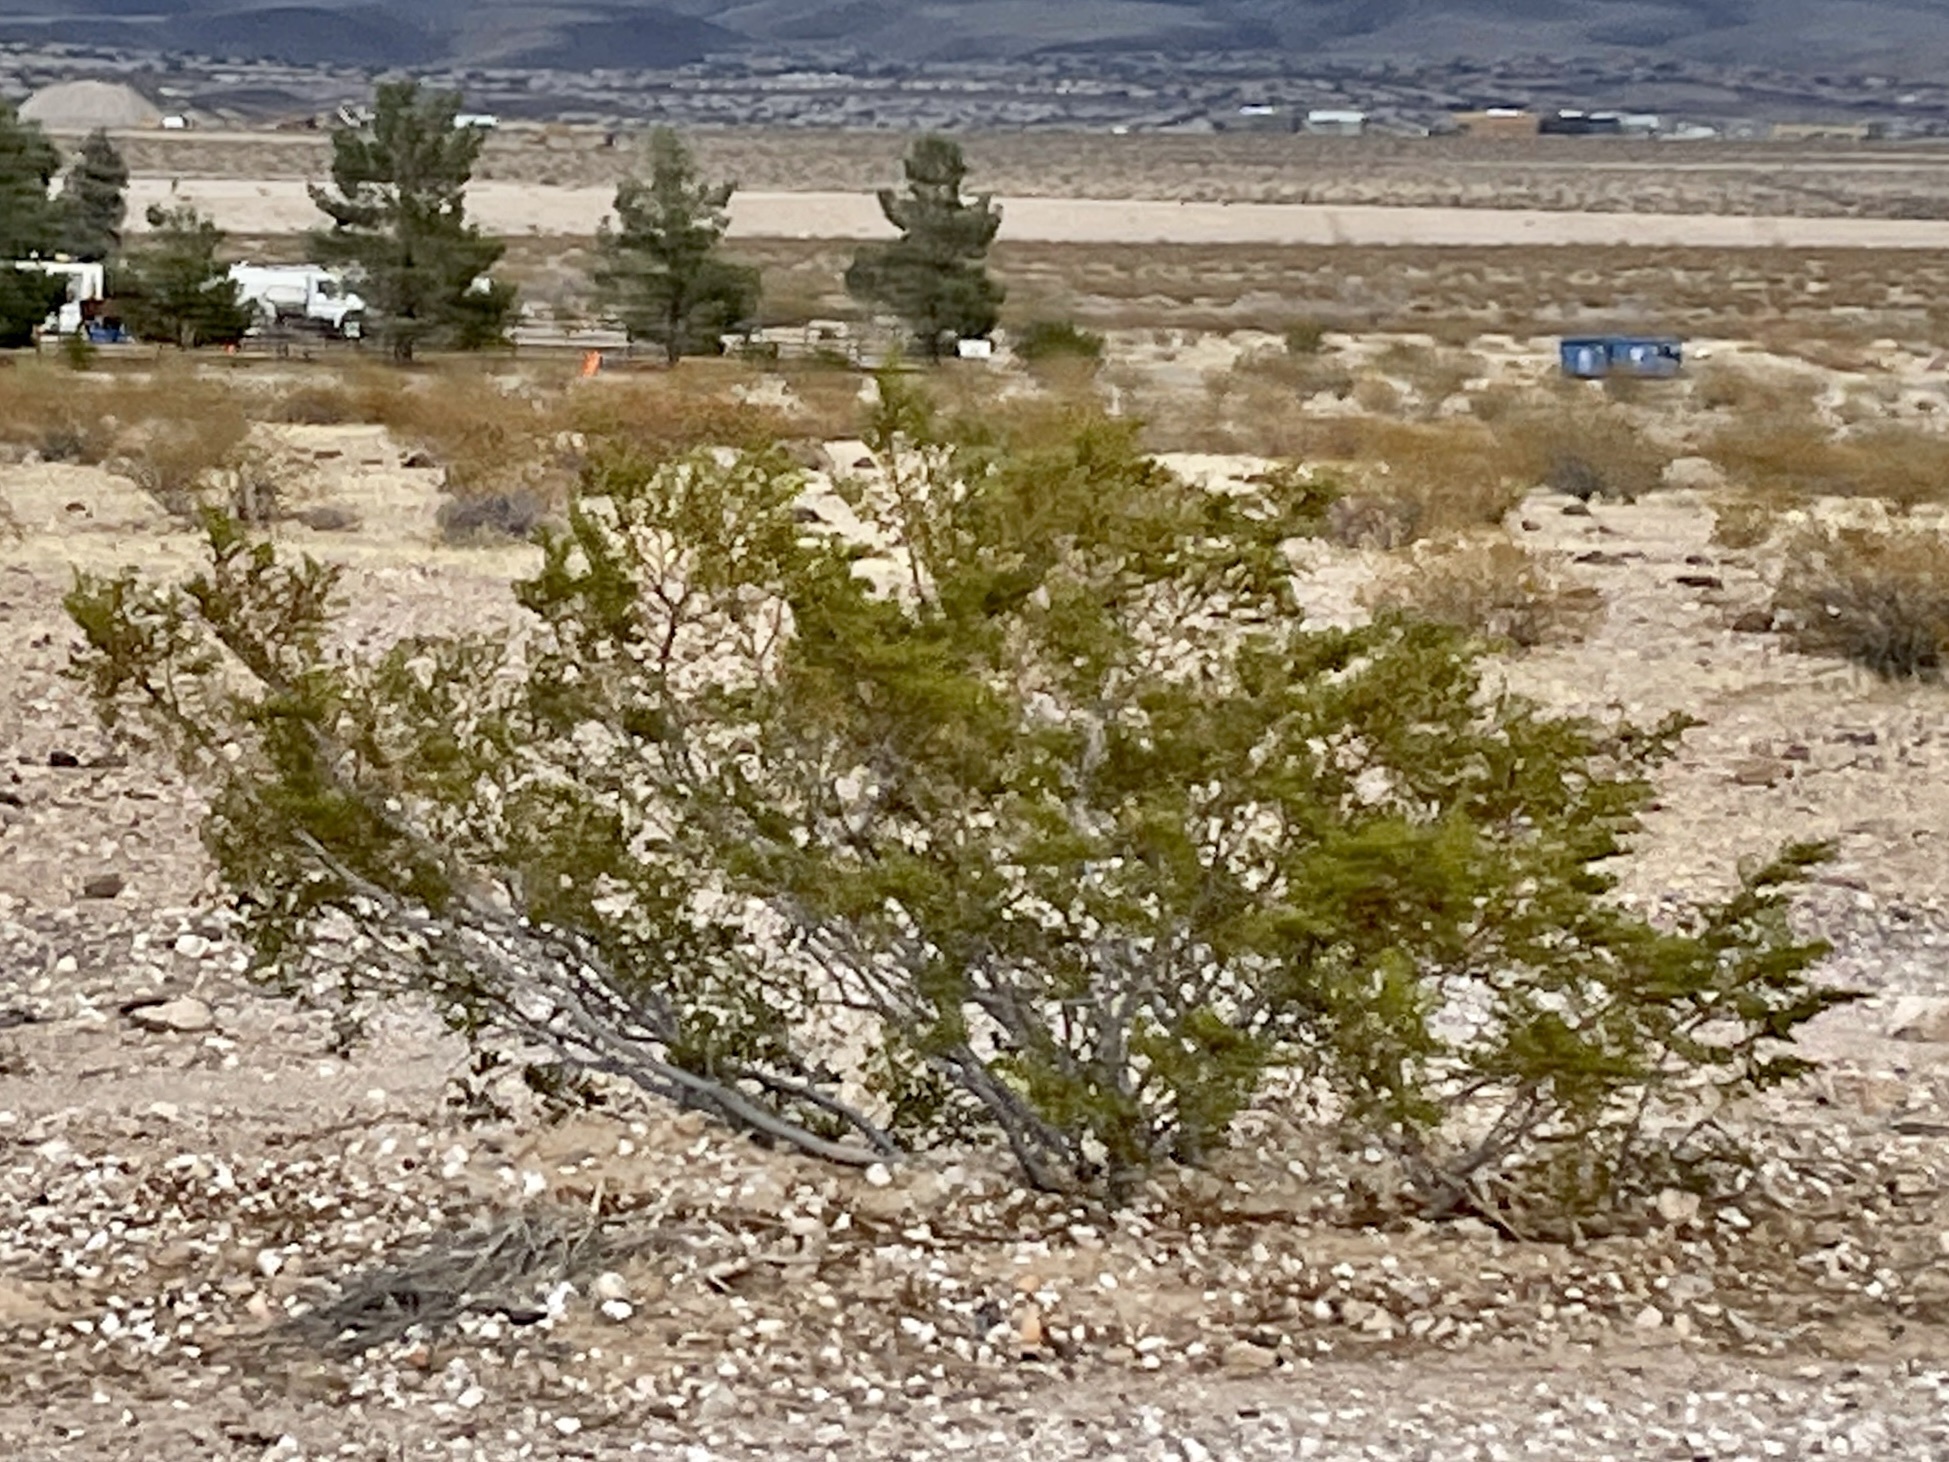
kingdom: Plantae
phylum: Tracheophyta
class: Magnoliopsida
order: Zygophyllales
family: Zygophyllaceae
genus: Larrea
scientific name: Larrea tridentata
